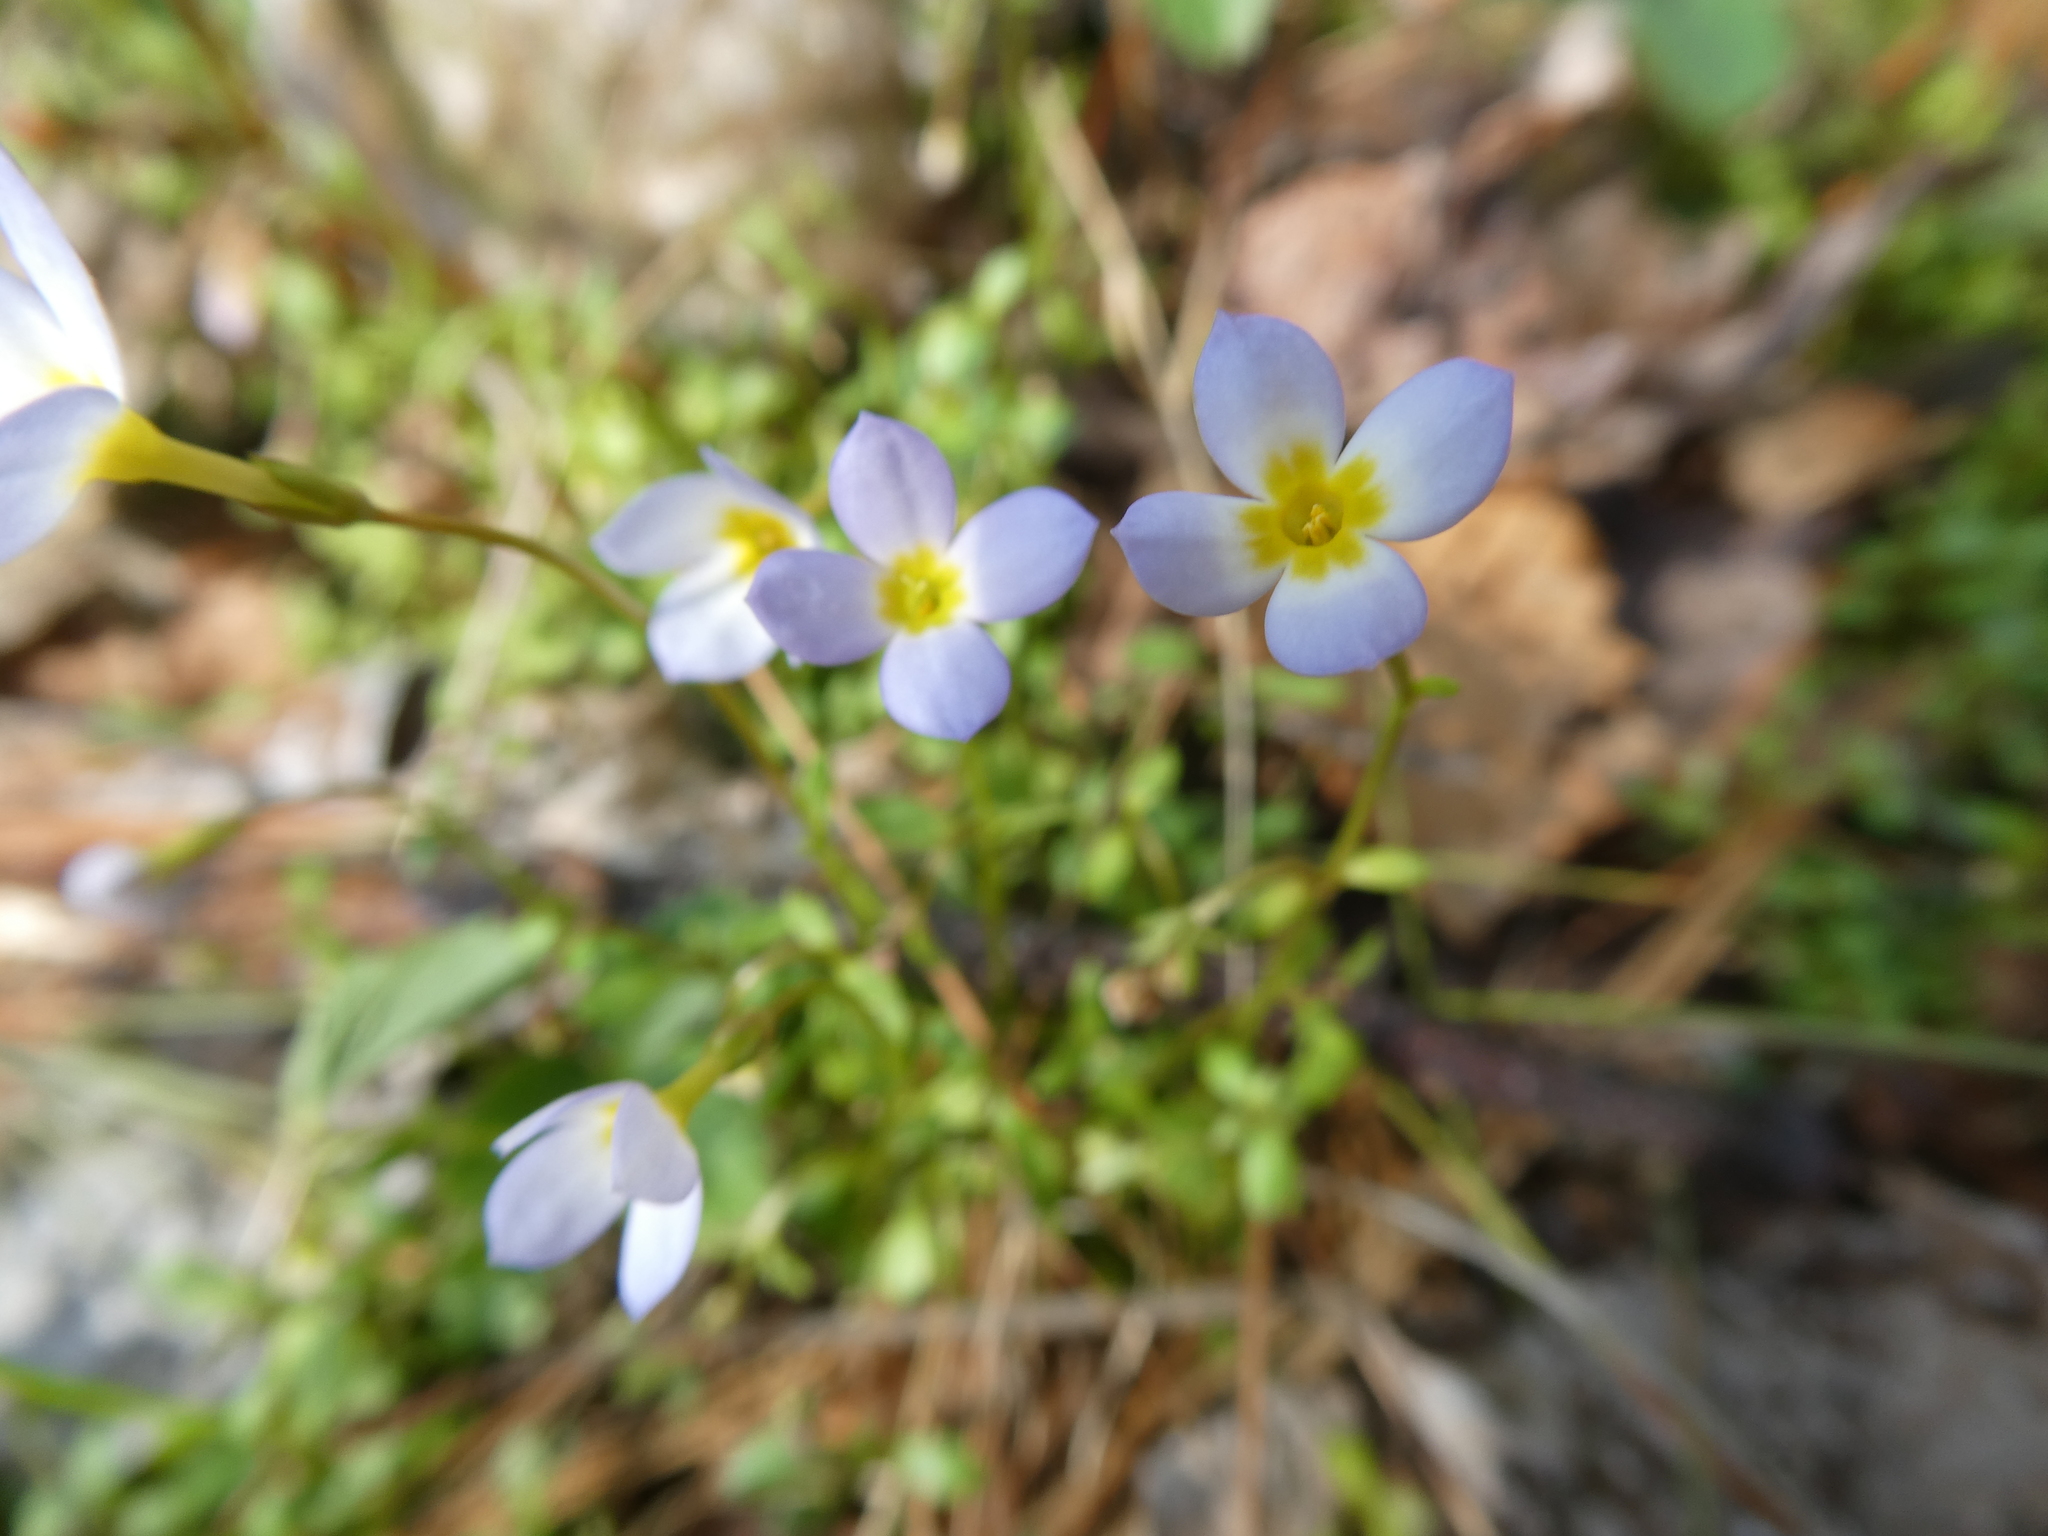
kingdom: Plantae
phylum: Tracheophyta
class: Magnoliopsida
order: Gentianales
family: Rubiaceae
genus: Houstonia
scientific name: Houstonia caerulea
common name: Bluets
